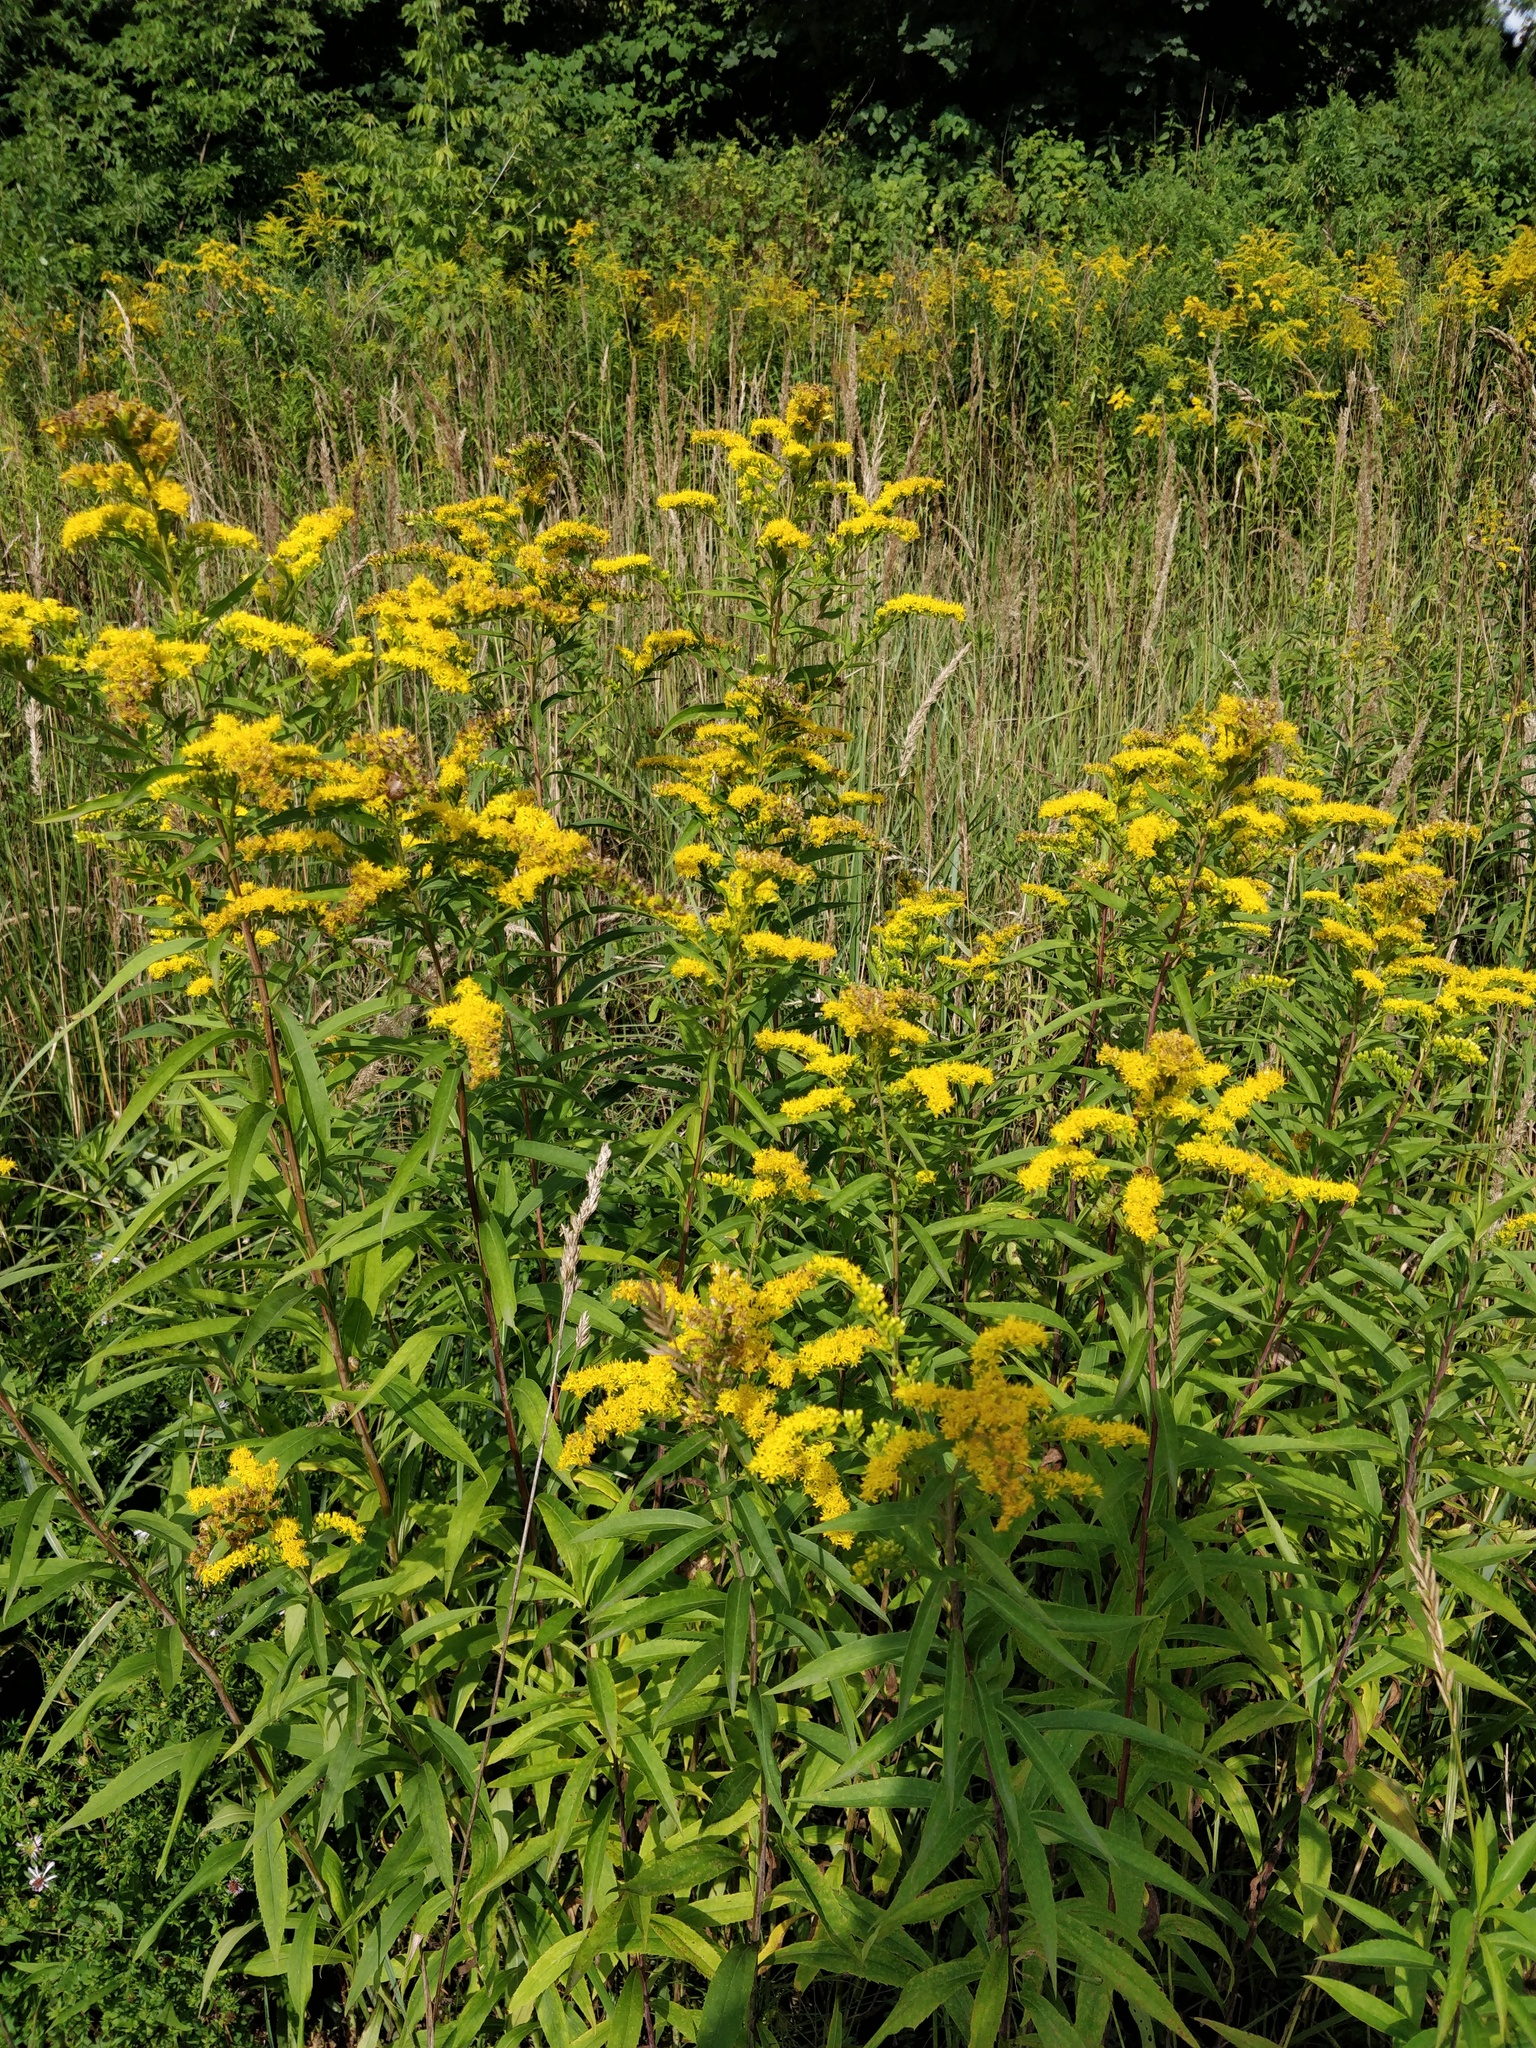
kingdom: Plantae
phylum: Tracheophyta
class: Magnoliopsida
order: Asterales
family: Asteraceae
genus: Solidago
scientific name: Solidago gigantea
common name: Giant goldenrod
